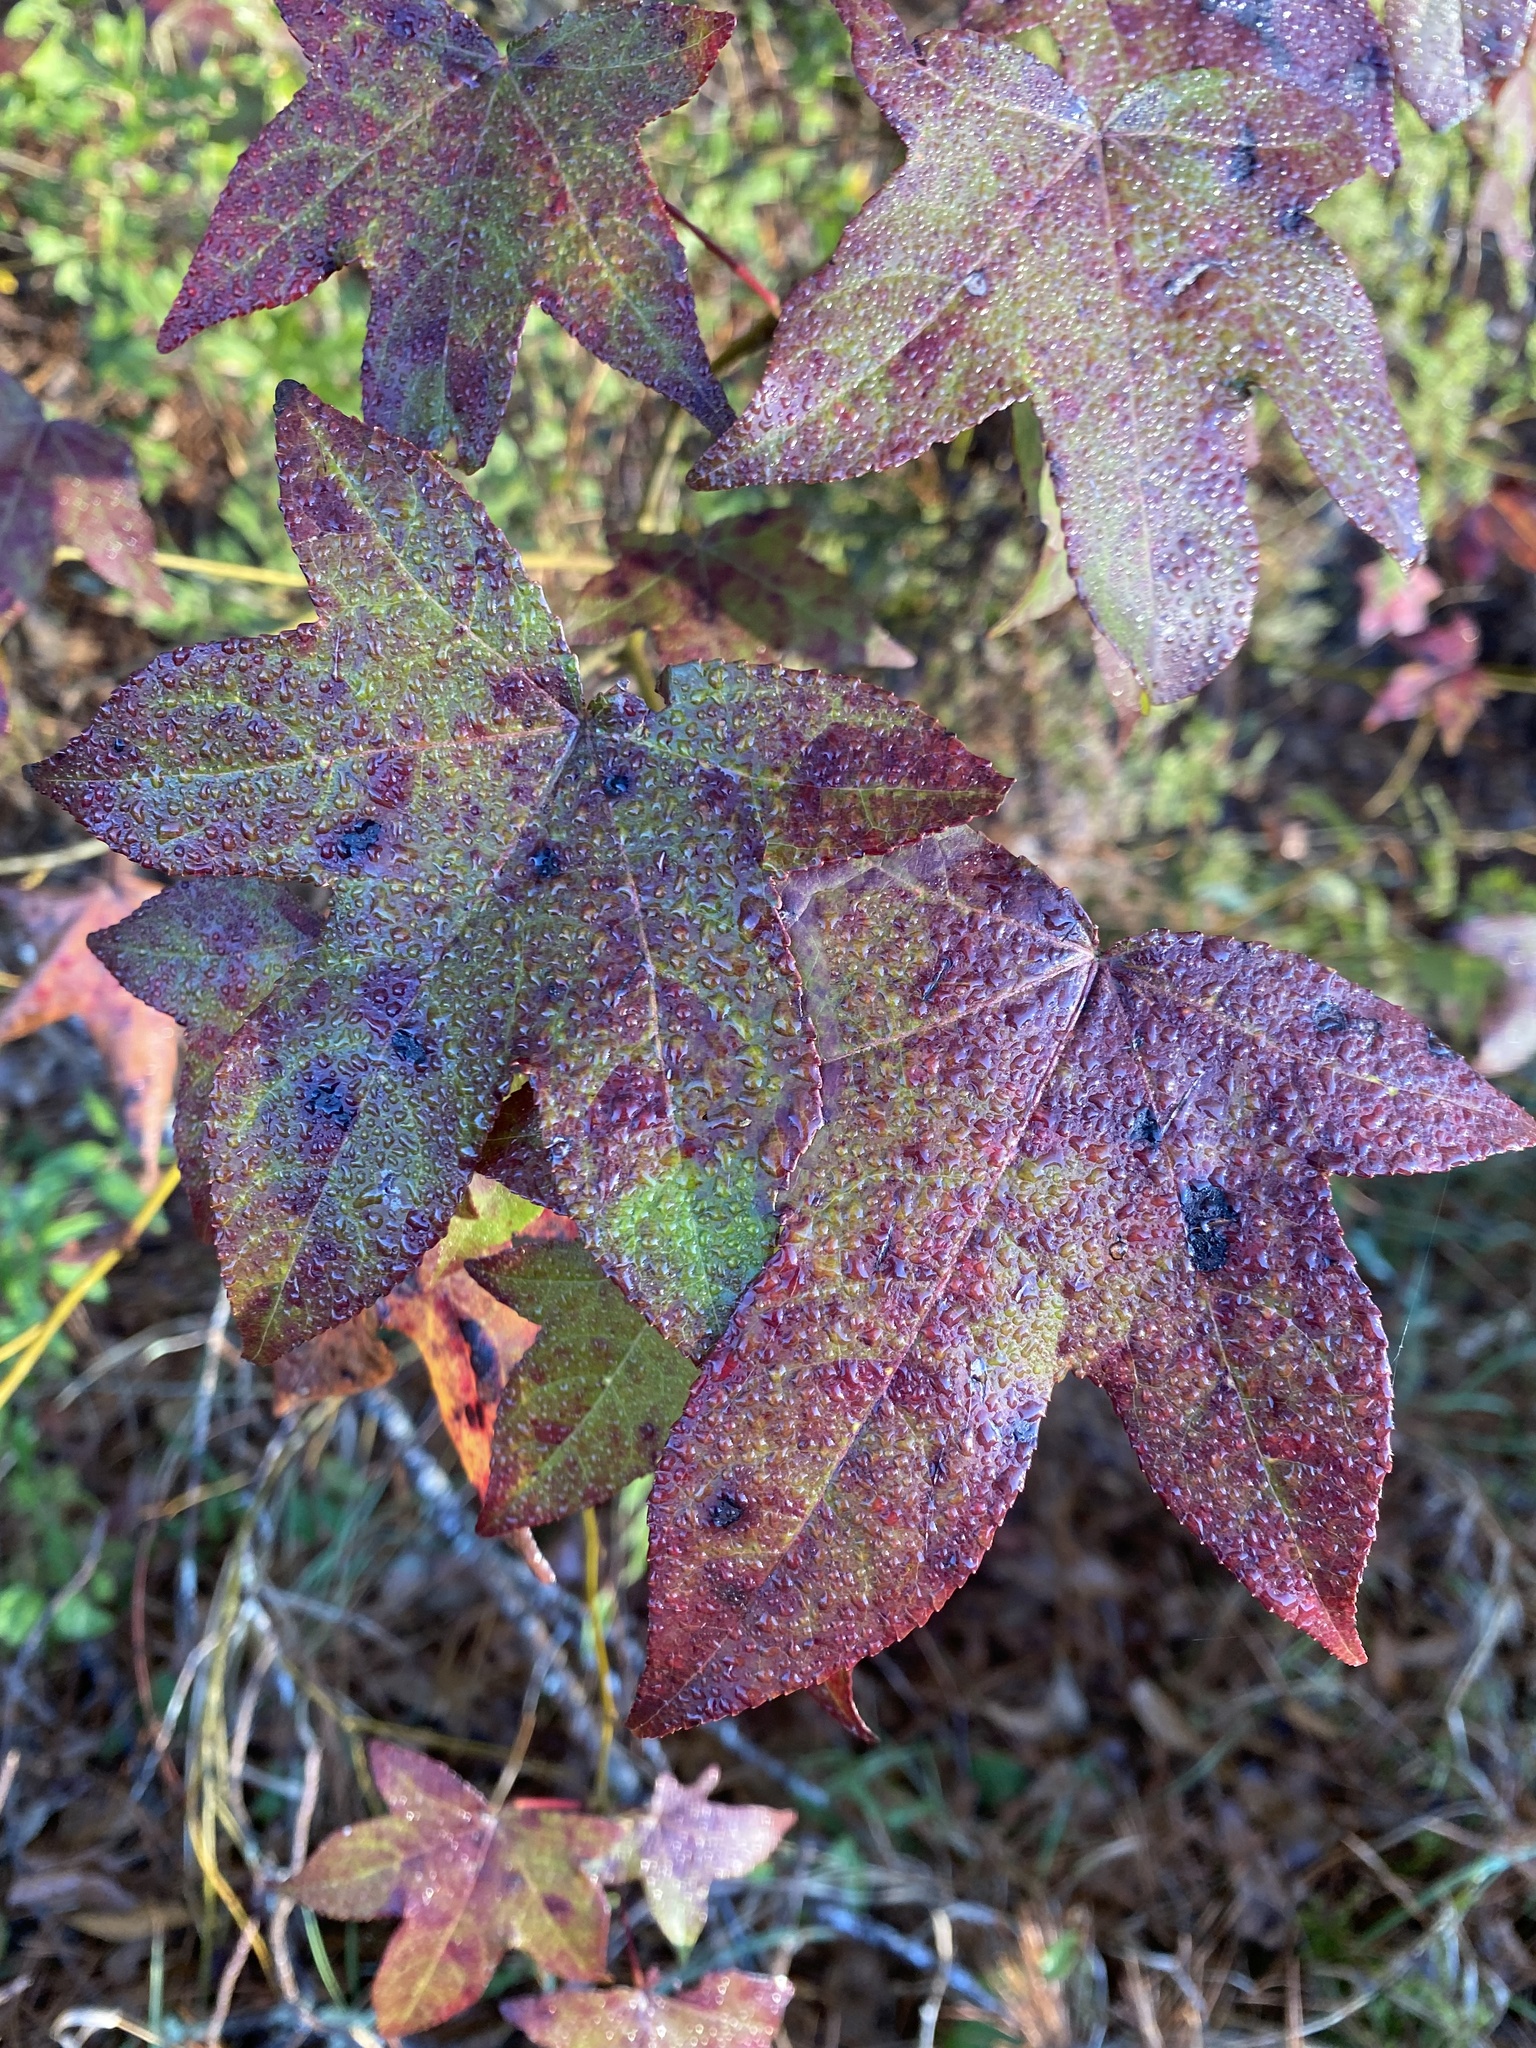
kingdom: Plantae
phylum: Tracheophyta
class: Magnoliopsida
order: Saxifragales
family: Altingiaceae
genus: Liquidambar
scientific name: Liquidambar styraciflua
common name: Sweet gum
